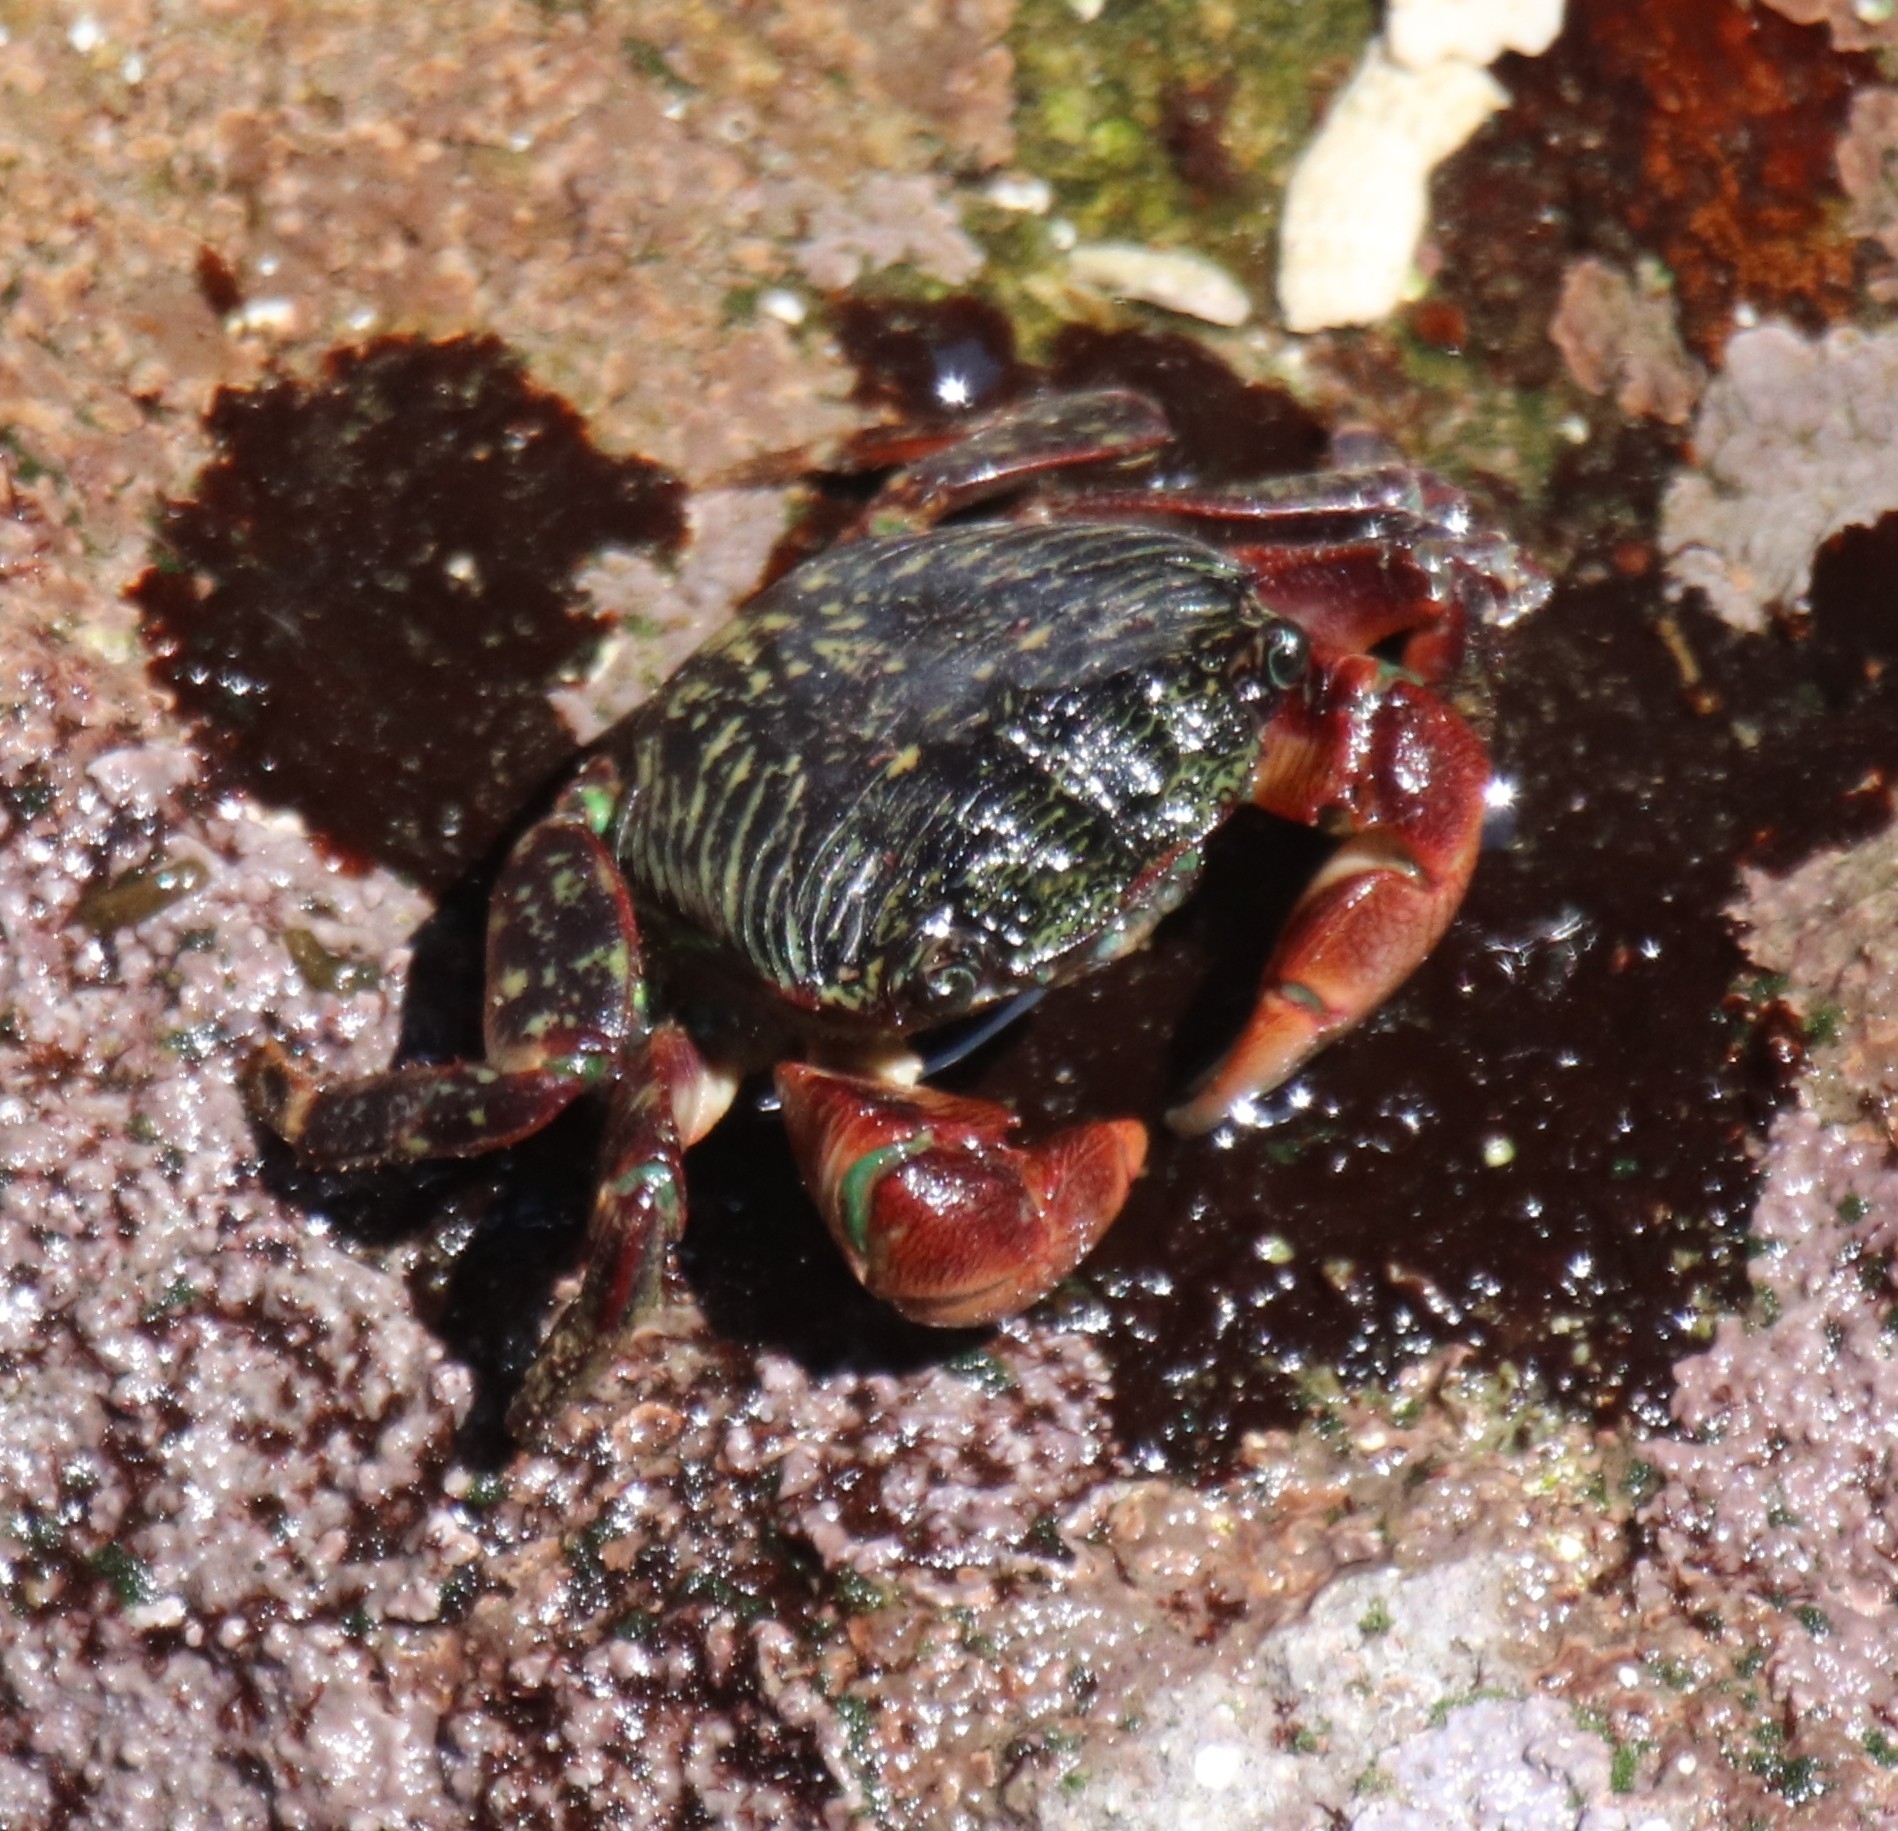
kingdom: Animalia
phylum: Arthropoda
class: Malacostraca
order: Decapoda
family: Grapsidae
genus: Pachygrapsus
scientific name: Pachygrapsus crassipes
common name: Striped shore crab
